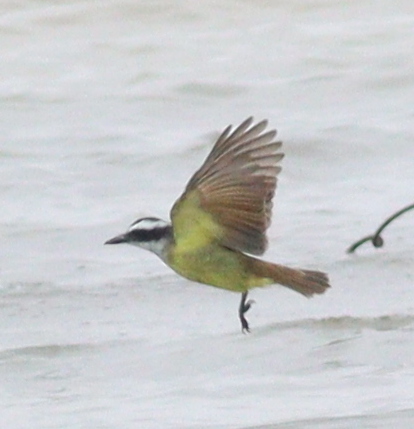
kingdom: Animalia
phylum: Chordata
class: Aves
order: Passeriformes
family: Tyrannidae
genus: Pitangus
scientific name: Pitangus sulphuratus
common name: Great kiskadee
